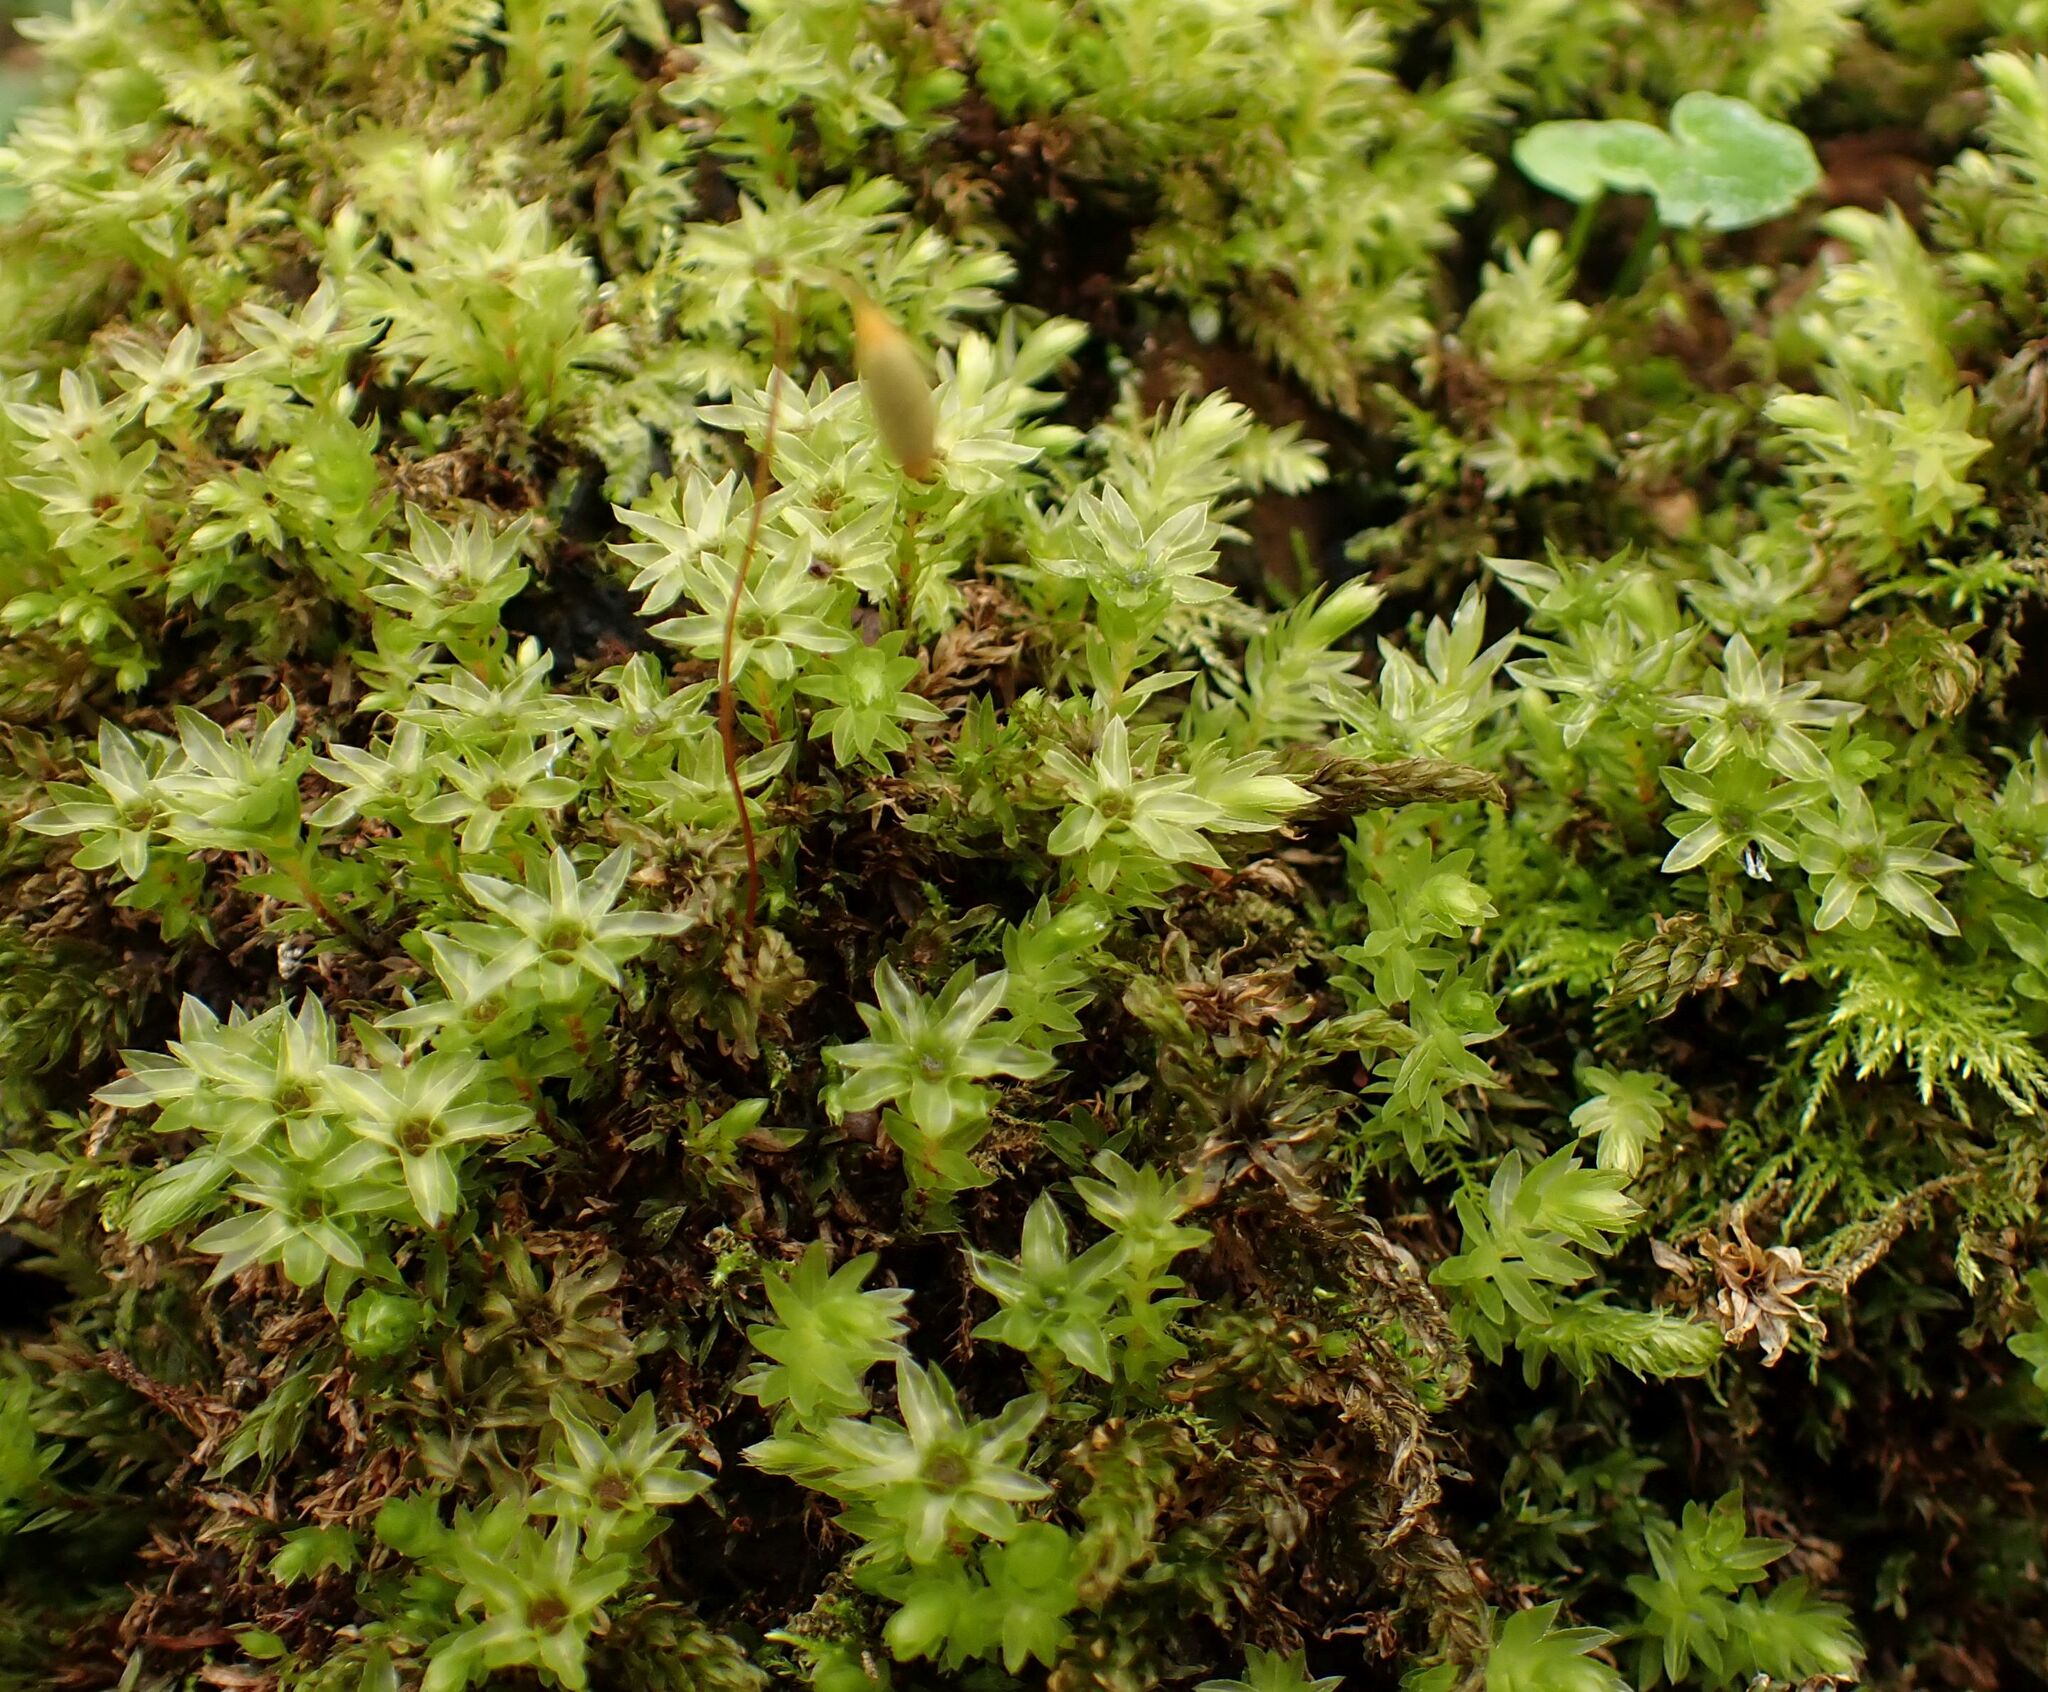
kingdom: Plantae
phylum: Bryophyta
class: Bryopsida
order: Bryales
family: Mniaceae
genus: Mnium
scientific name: Mnium hornum
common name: Swan's-neck leafy moss
